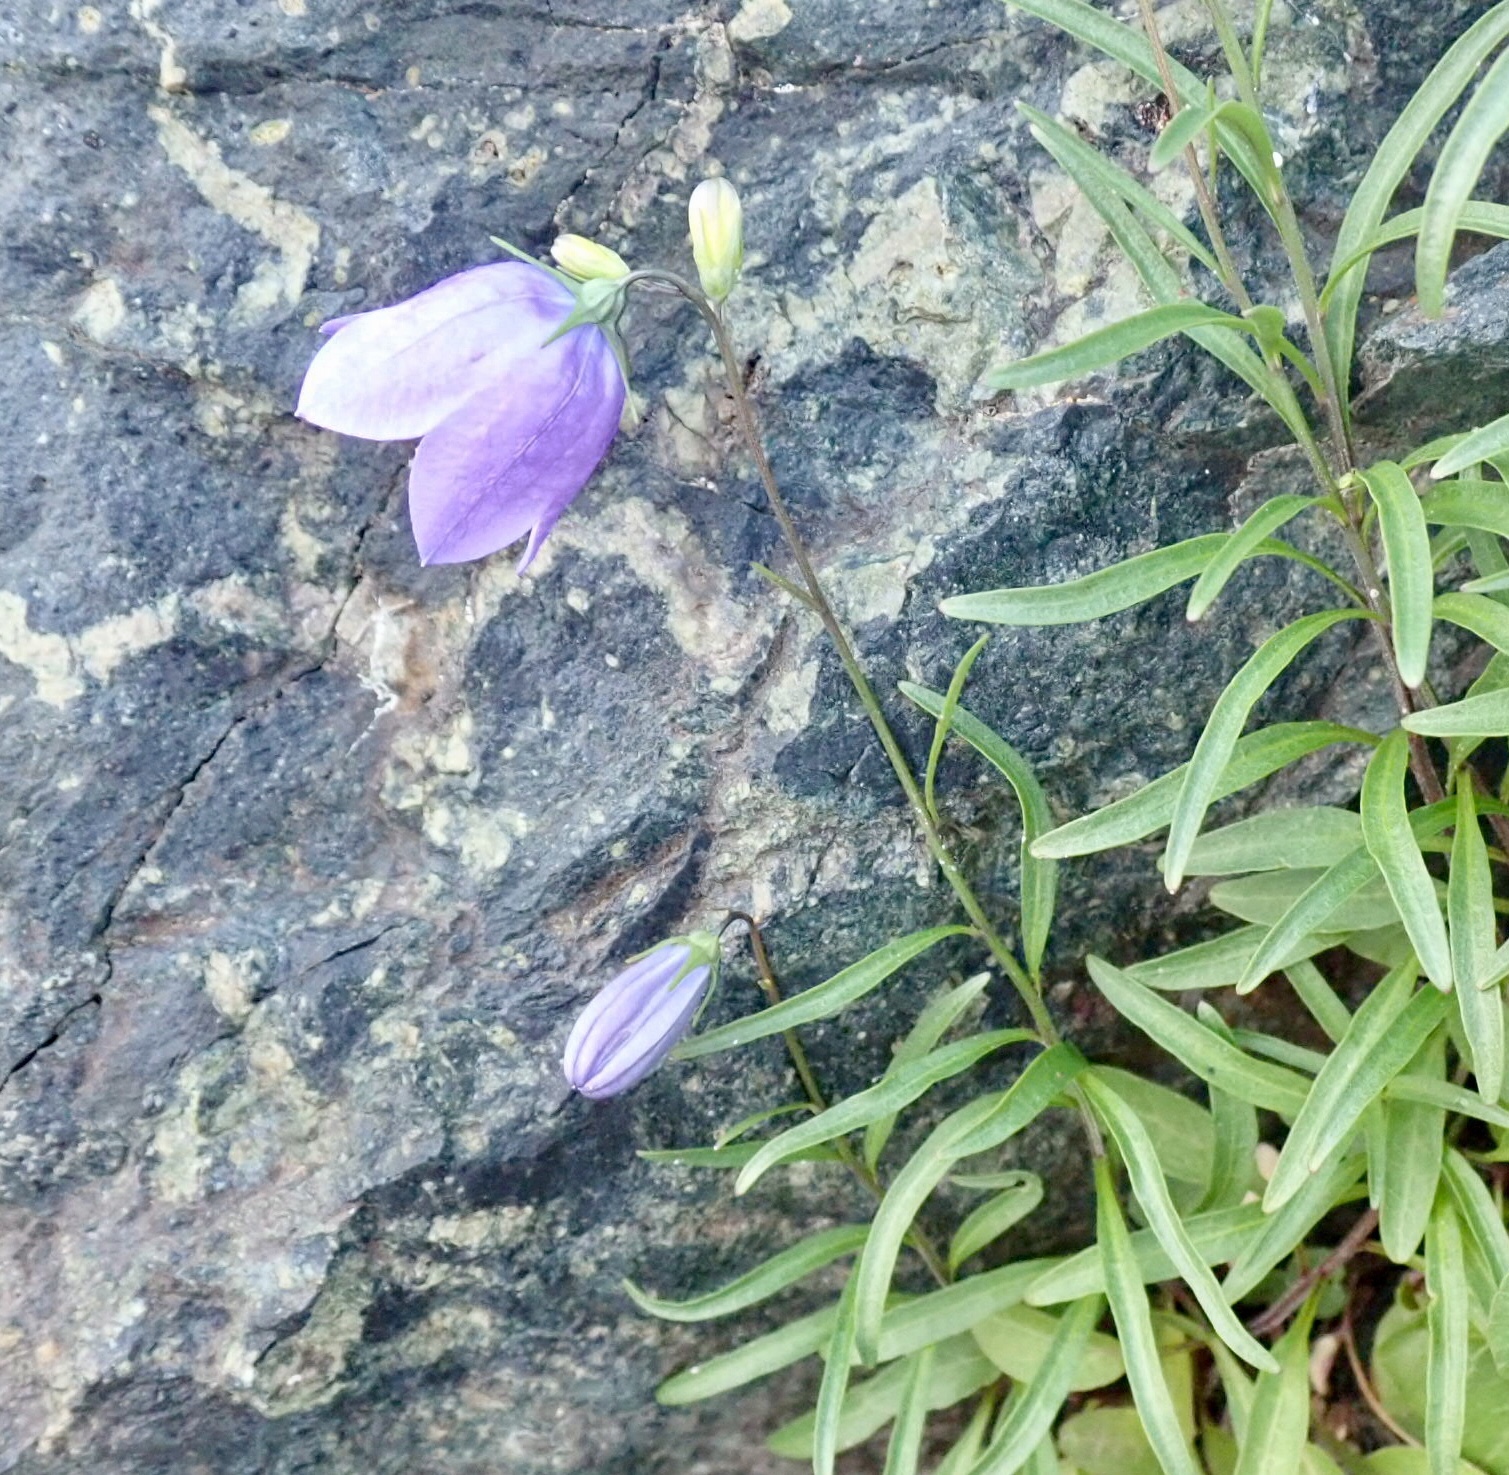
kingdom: Plantae
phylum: Tracheophyta
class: Magnoliopsida
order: Asterales
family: Campanulaceae
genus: Campanula
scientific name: Campanula giesekiana
